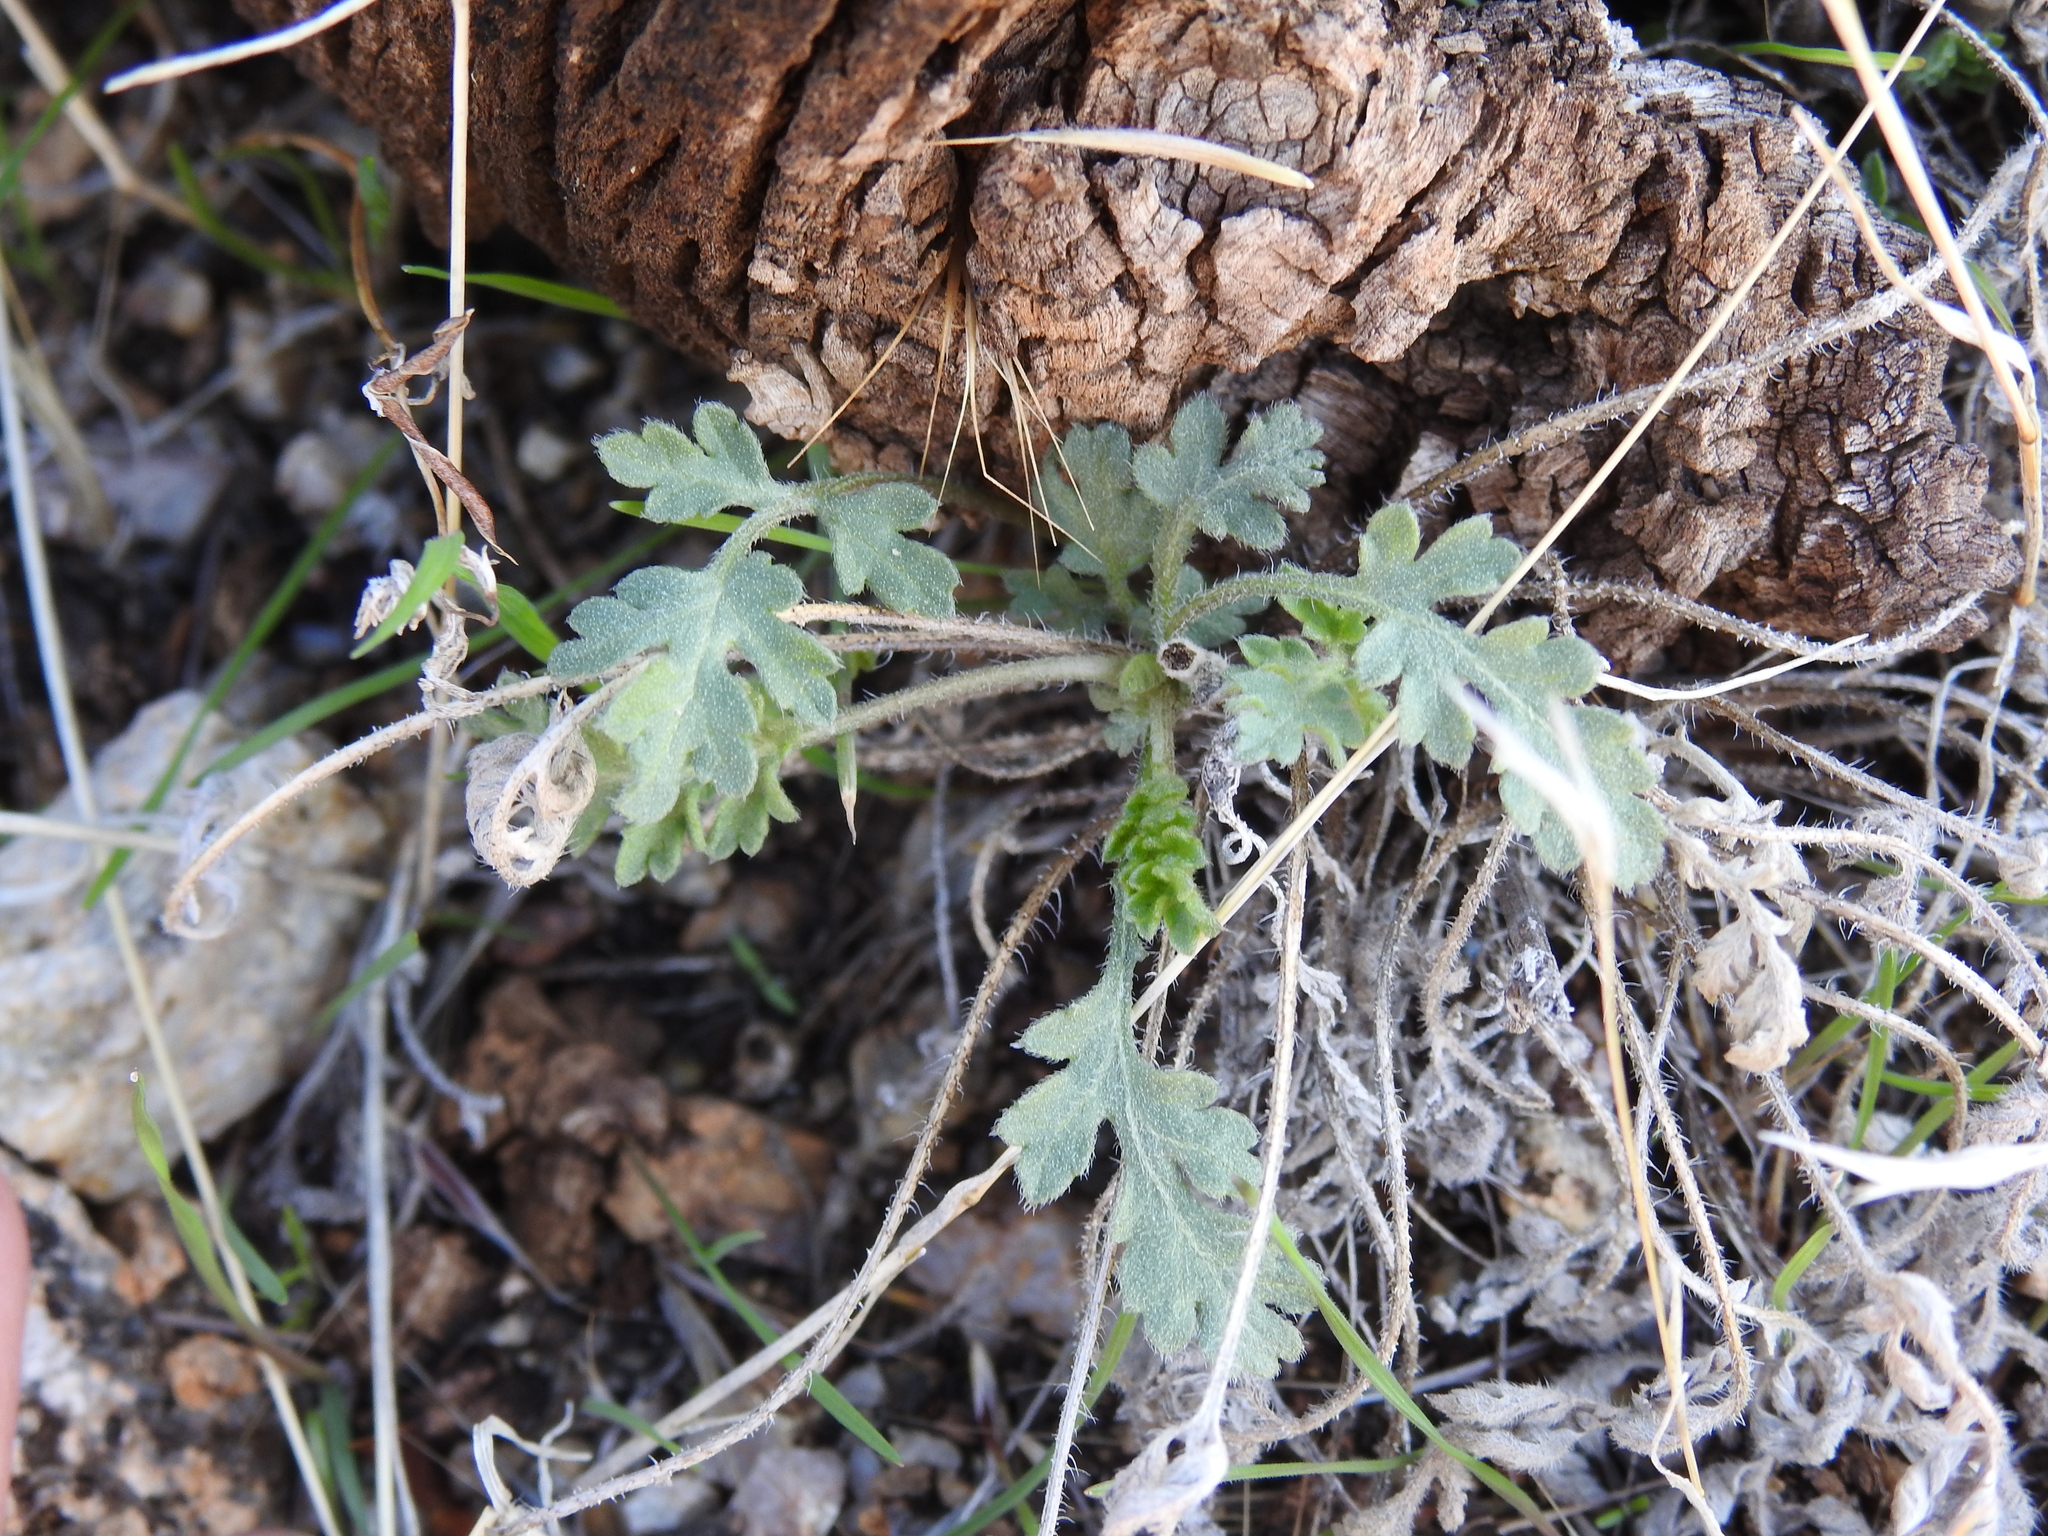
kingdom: Plantae
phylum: Tracheophyta
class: Magnoliopsida
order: Asterales
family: Asteraceae
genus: Ambrosia
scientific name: Ambrosia confertiflora
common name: Bur ragweed
